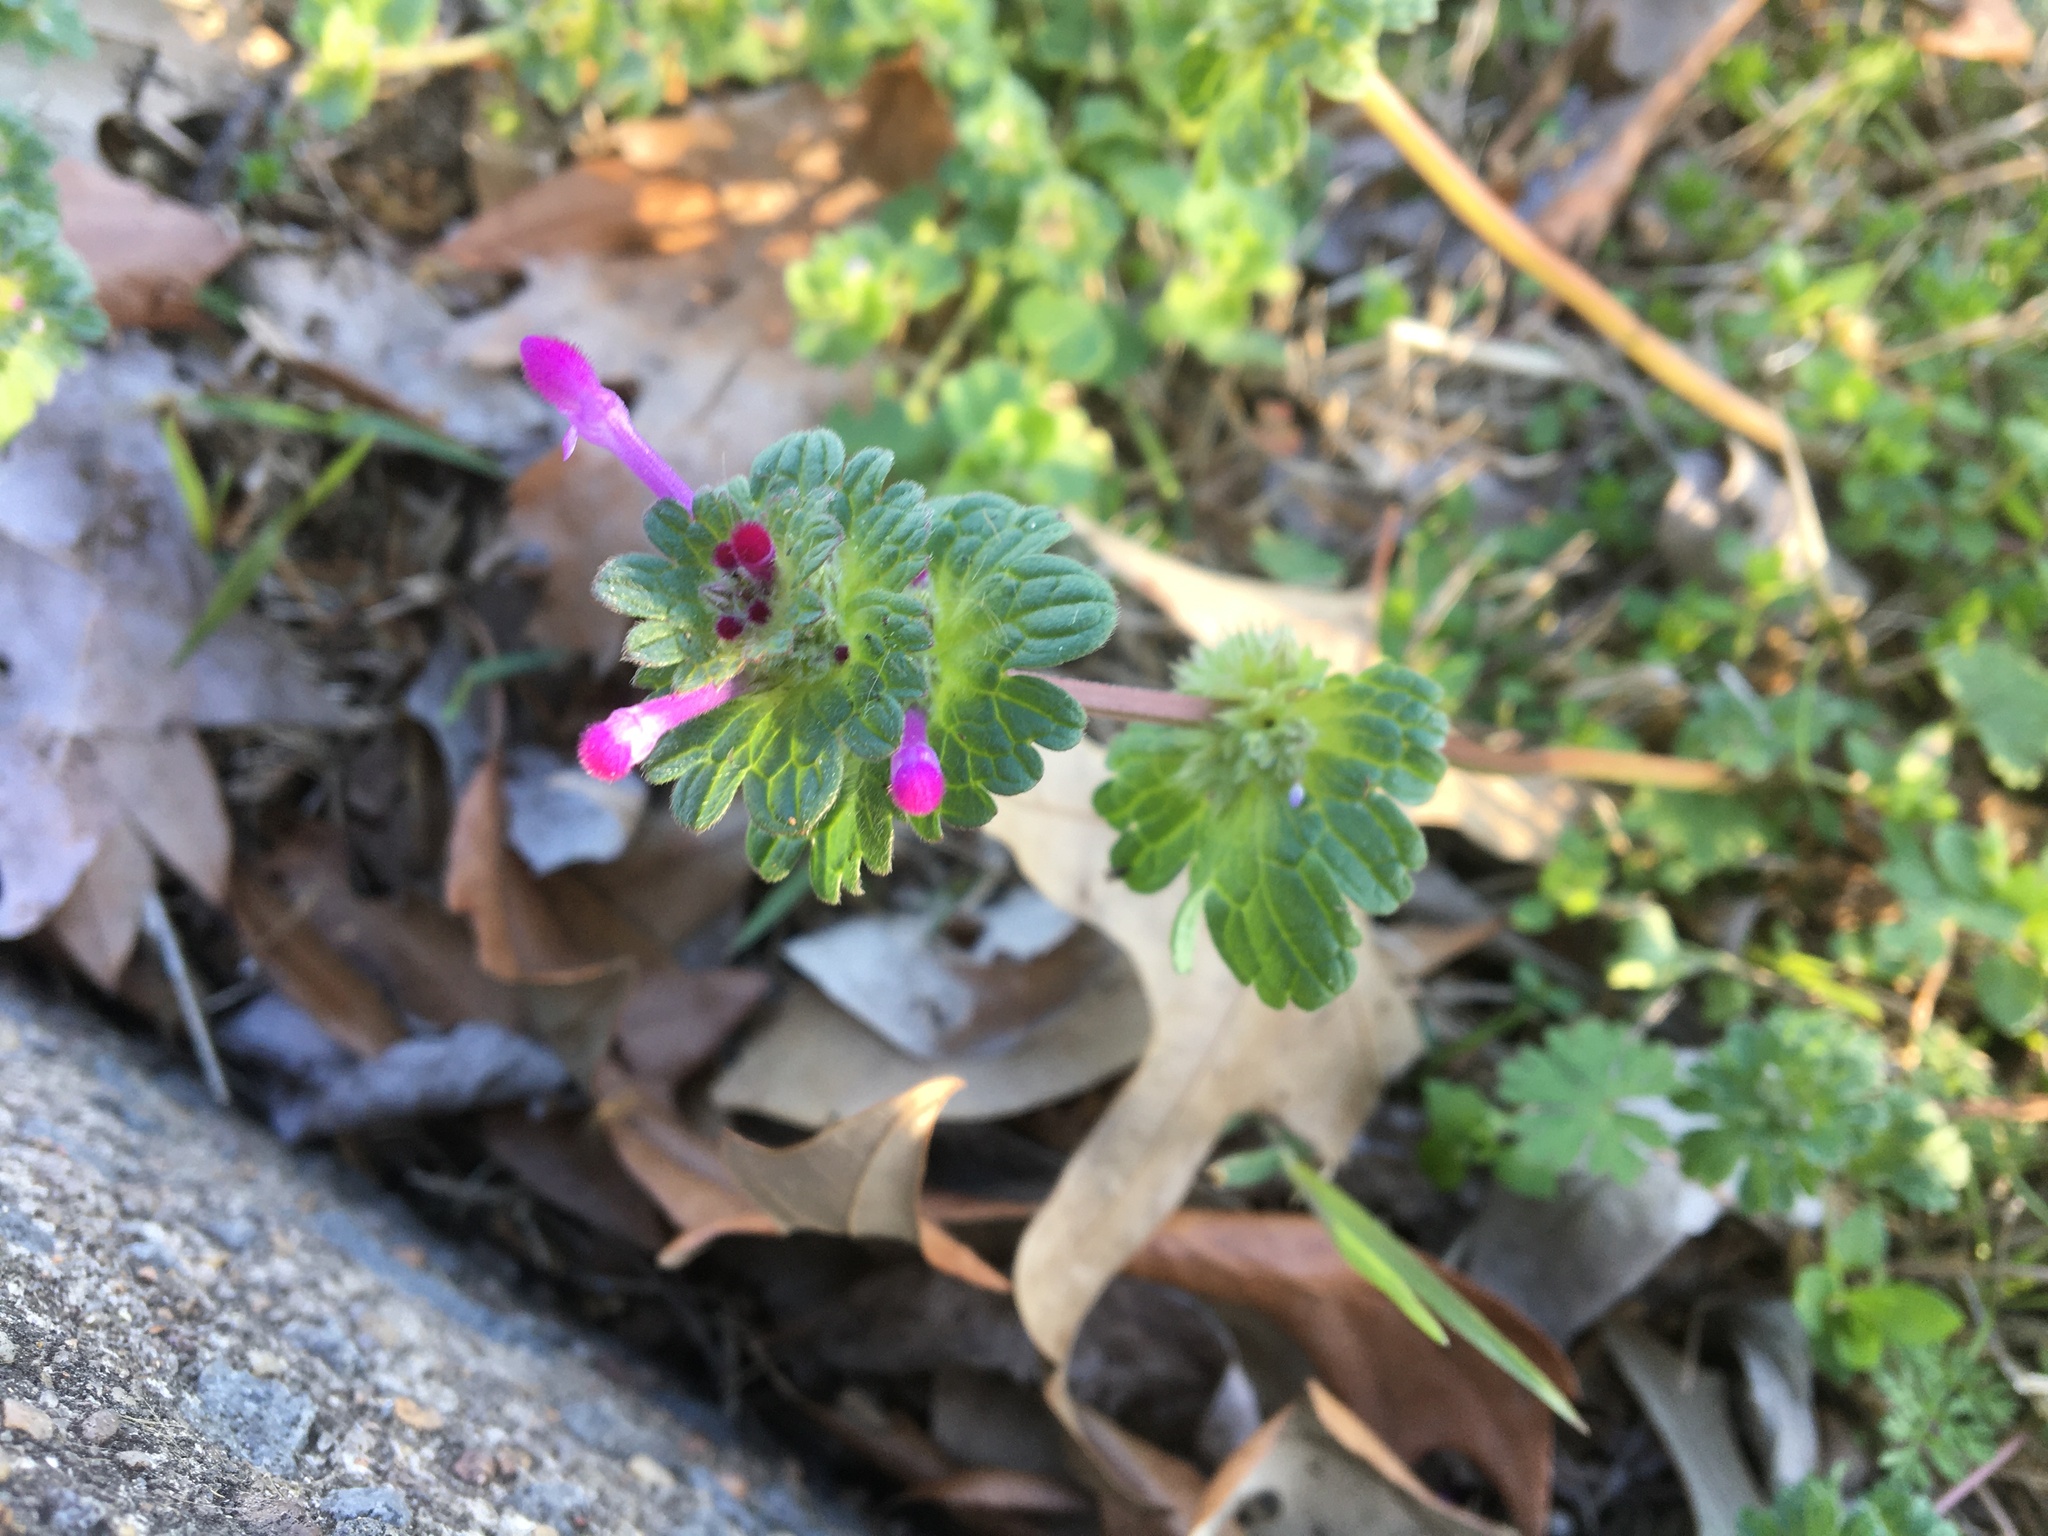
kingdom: Plantae
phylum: Tracheophyta
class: Magnoliopsida
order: Lamiales
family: Lamiaceae
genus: Lamium
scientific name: Lamium amplexicaule
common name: Henbit dead-nettle
